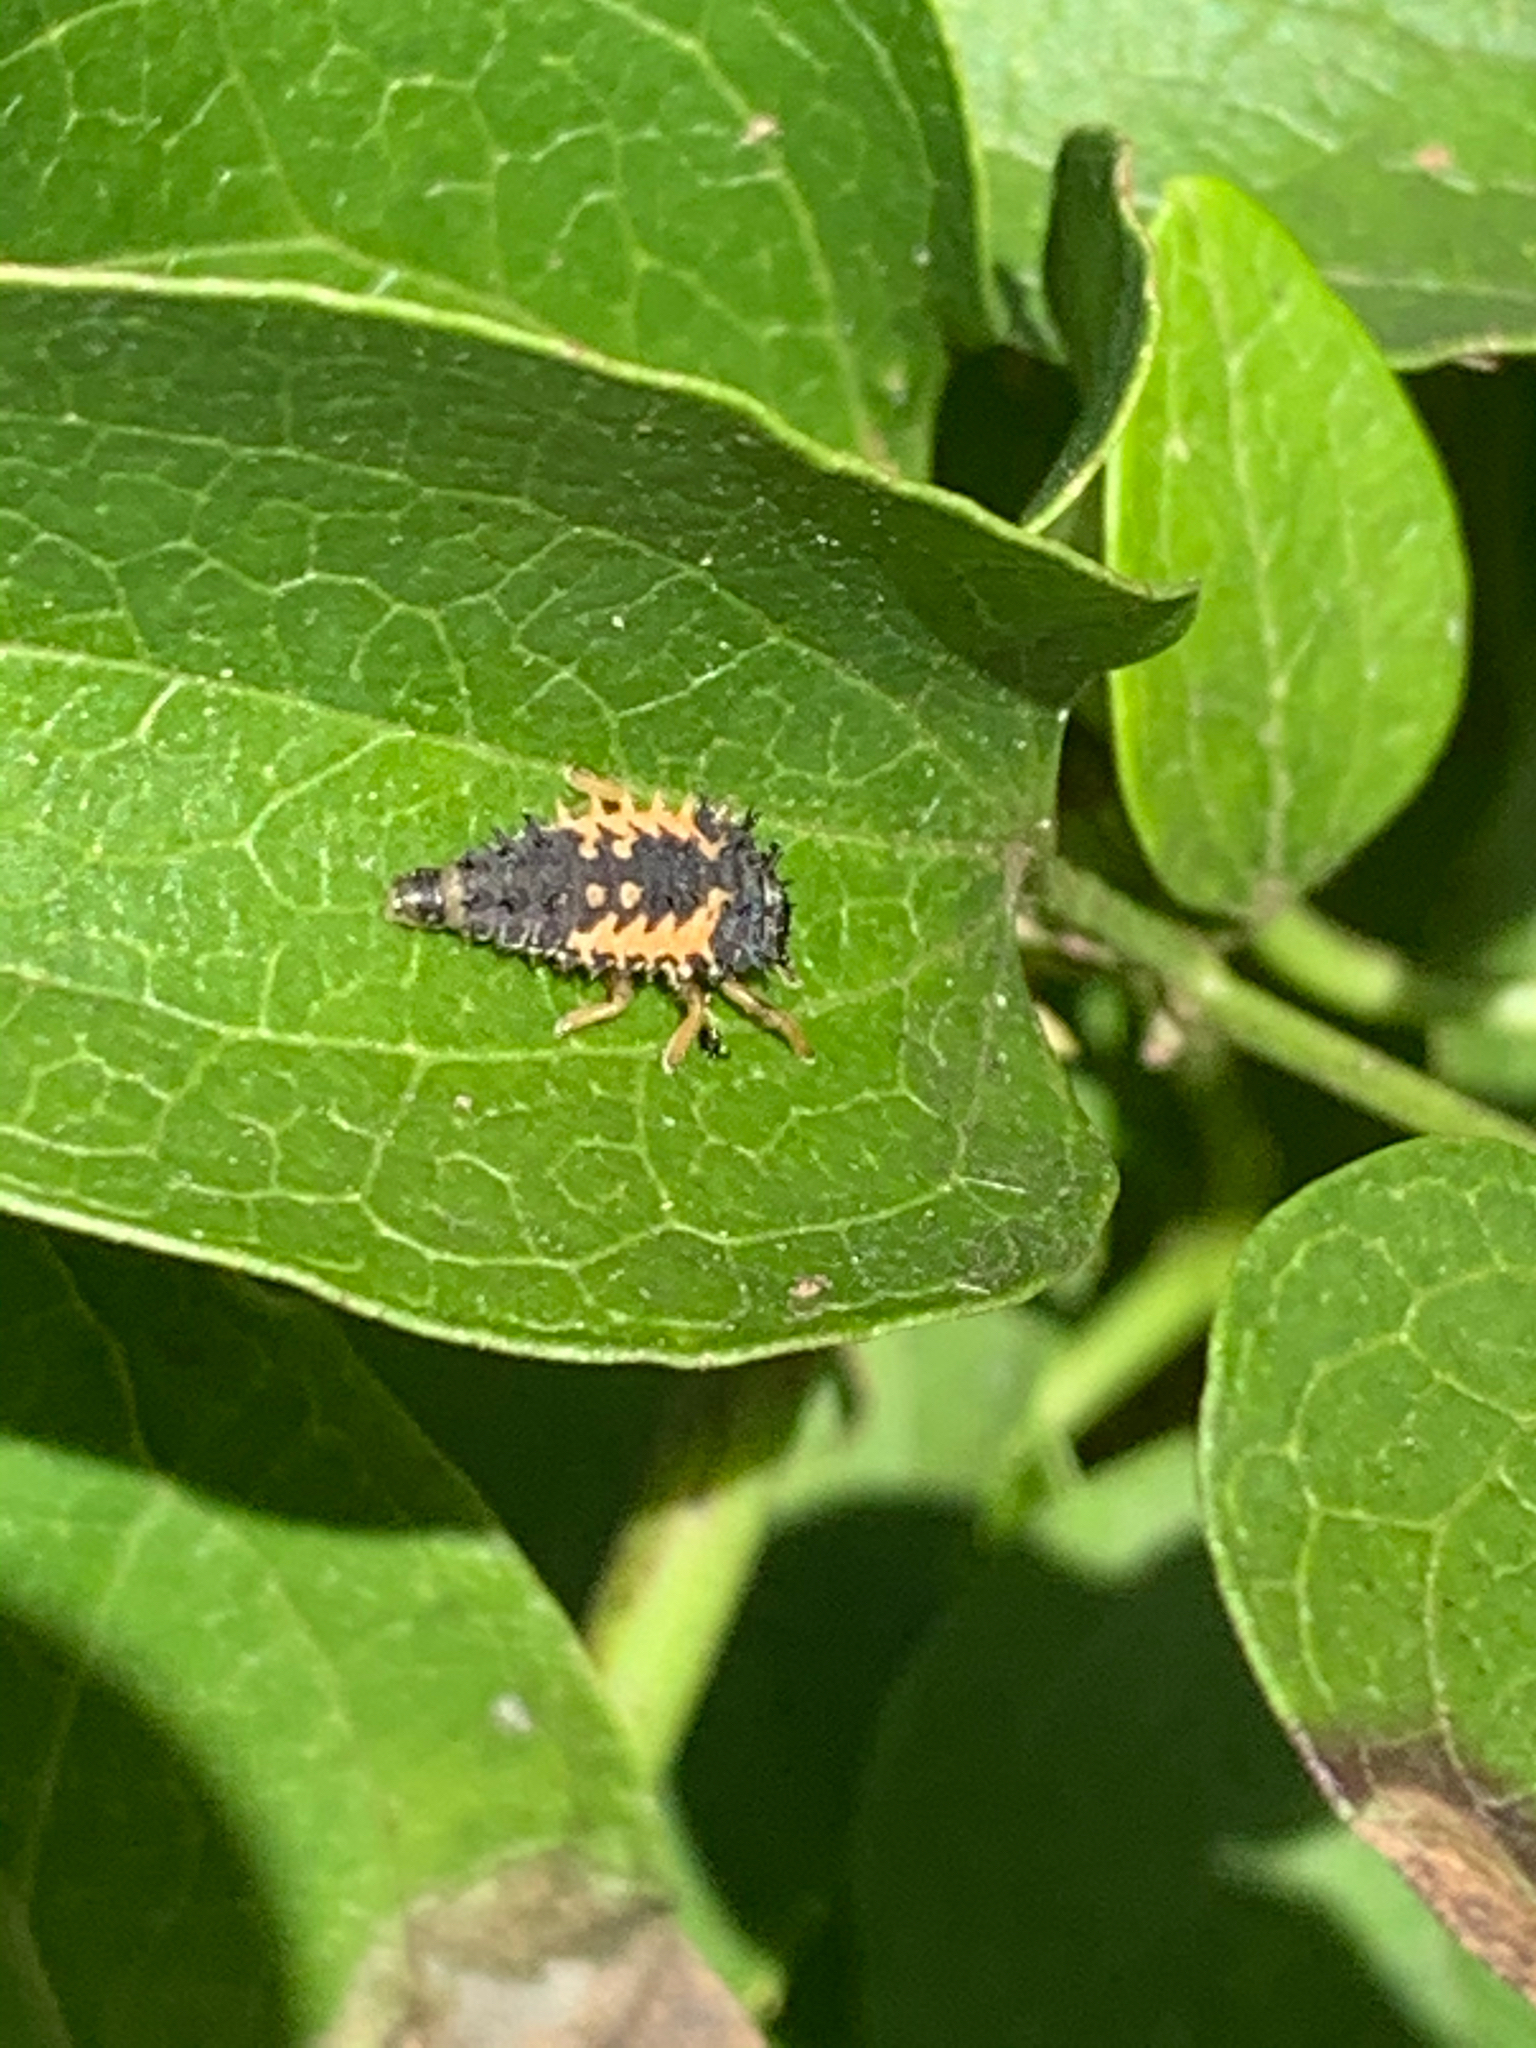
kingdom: Animalia
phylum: Arthropoda
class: Insecta
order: Coleoptera
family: Coccinellidae
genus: Harmonia
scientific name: Harmonia axyridis
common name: Harlequin ladybird
